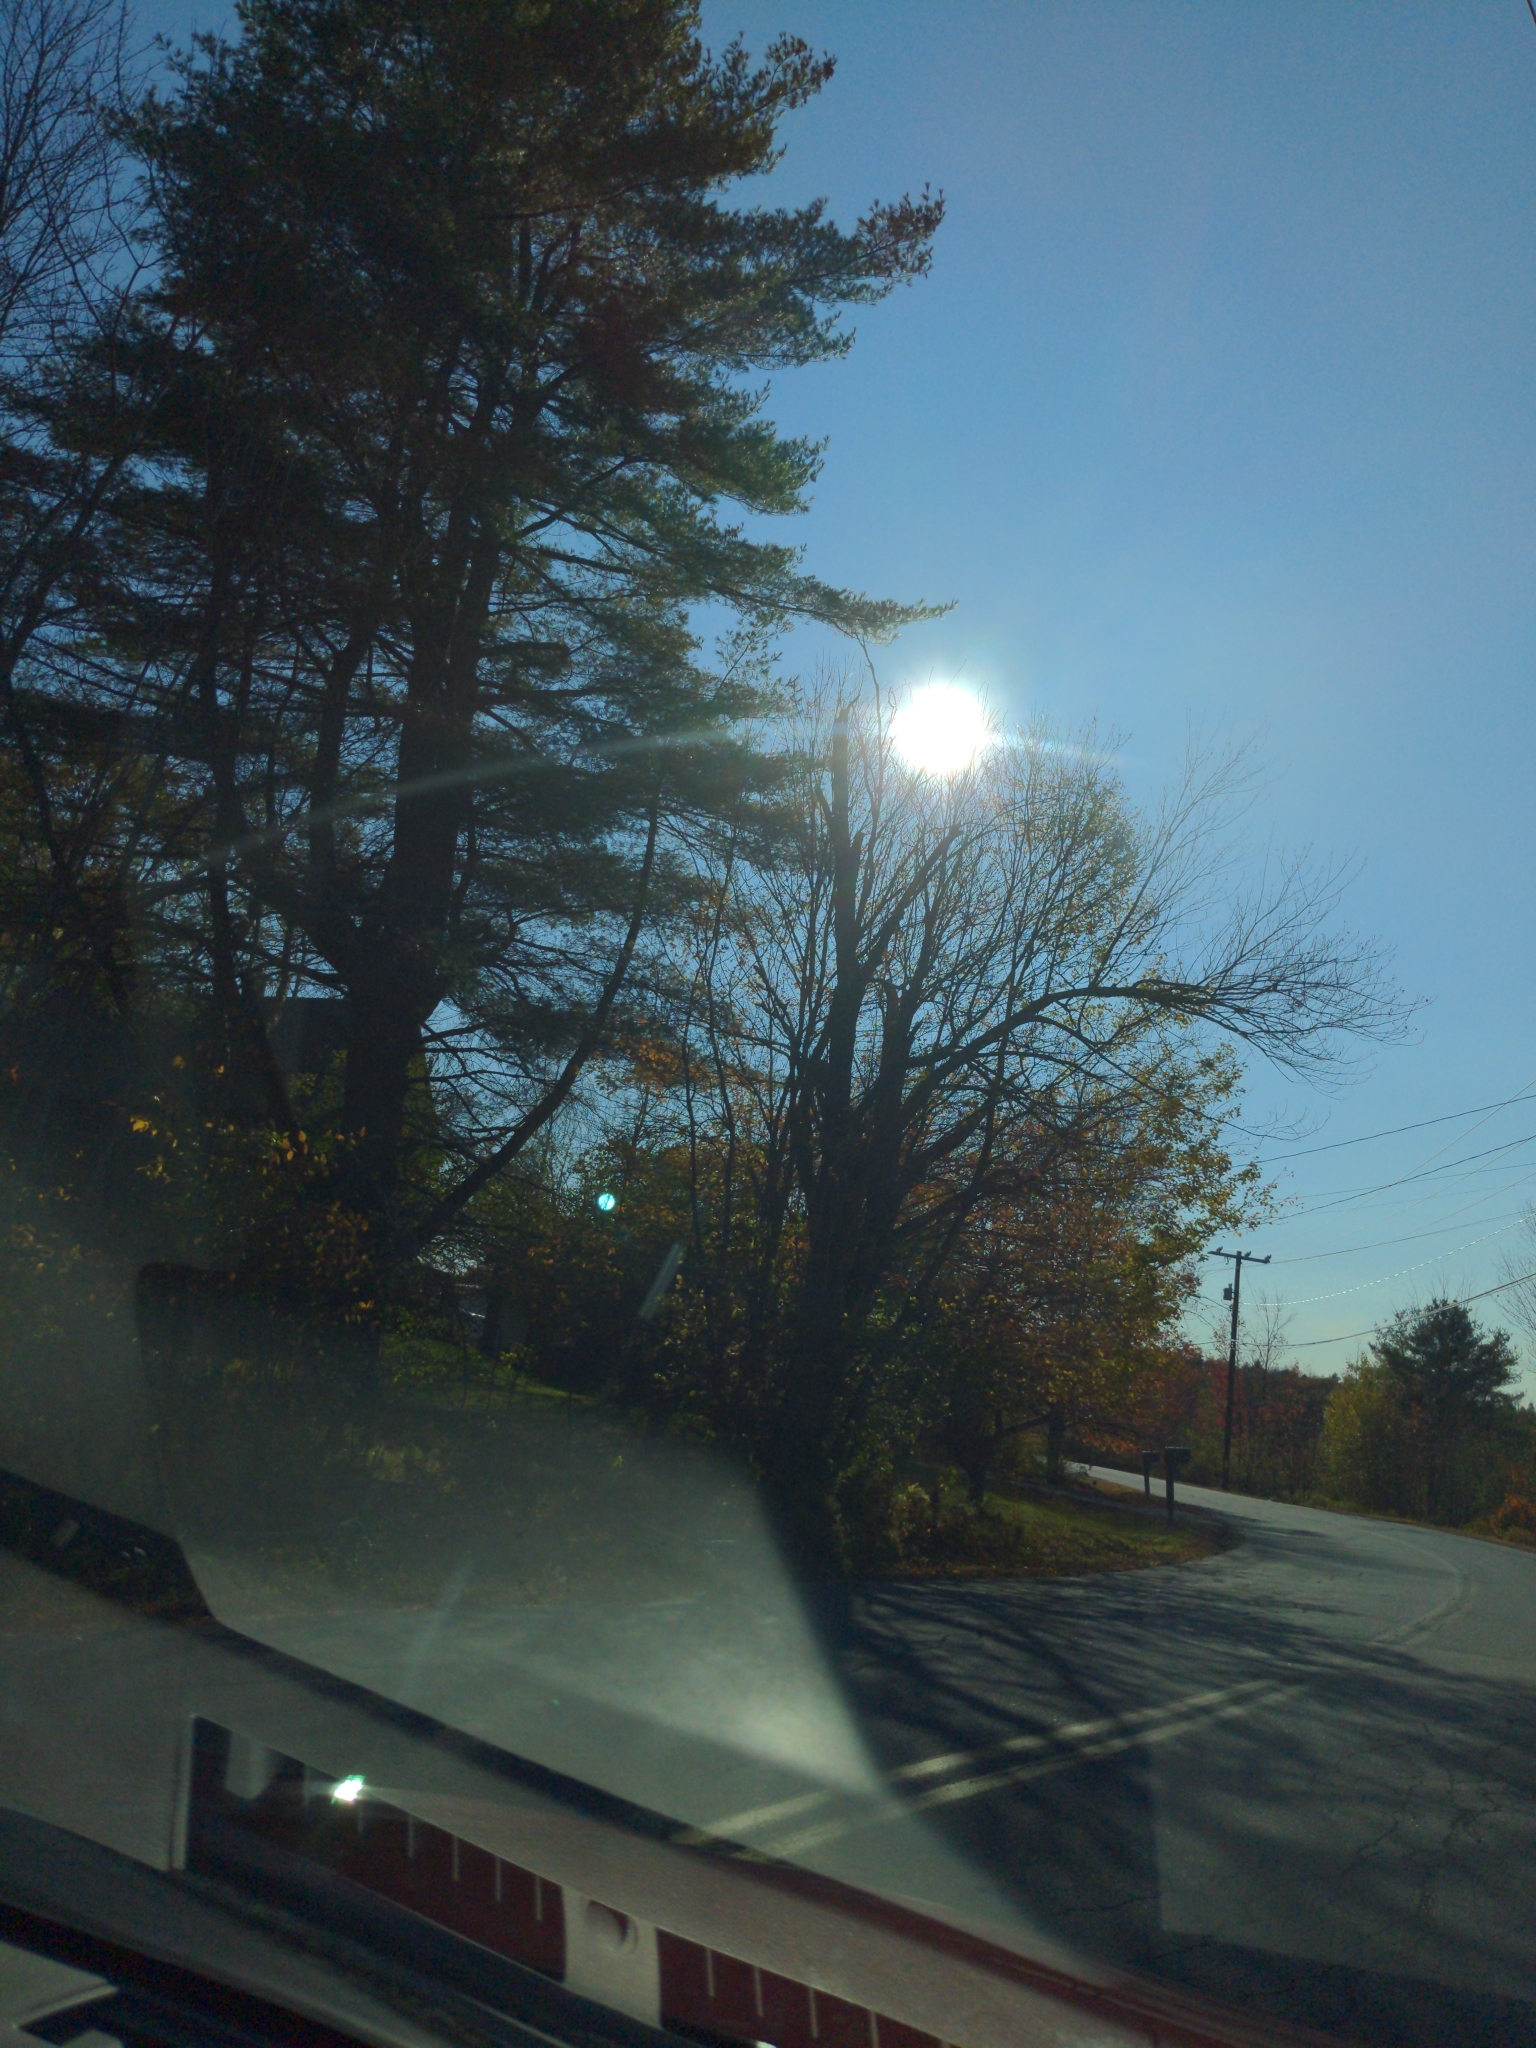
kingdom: Plantae
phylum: Tracheophyta
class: Pinopsida
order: Pinales
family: Pinaceae
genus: Pinus
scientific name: Pinus strobus
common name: Weymouth pine
